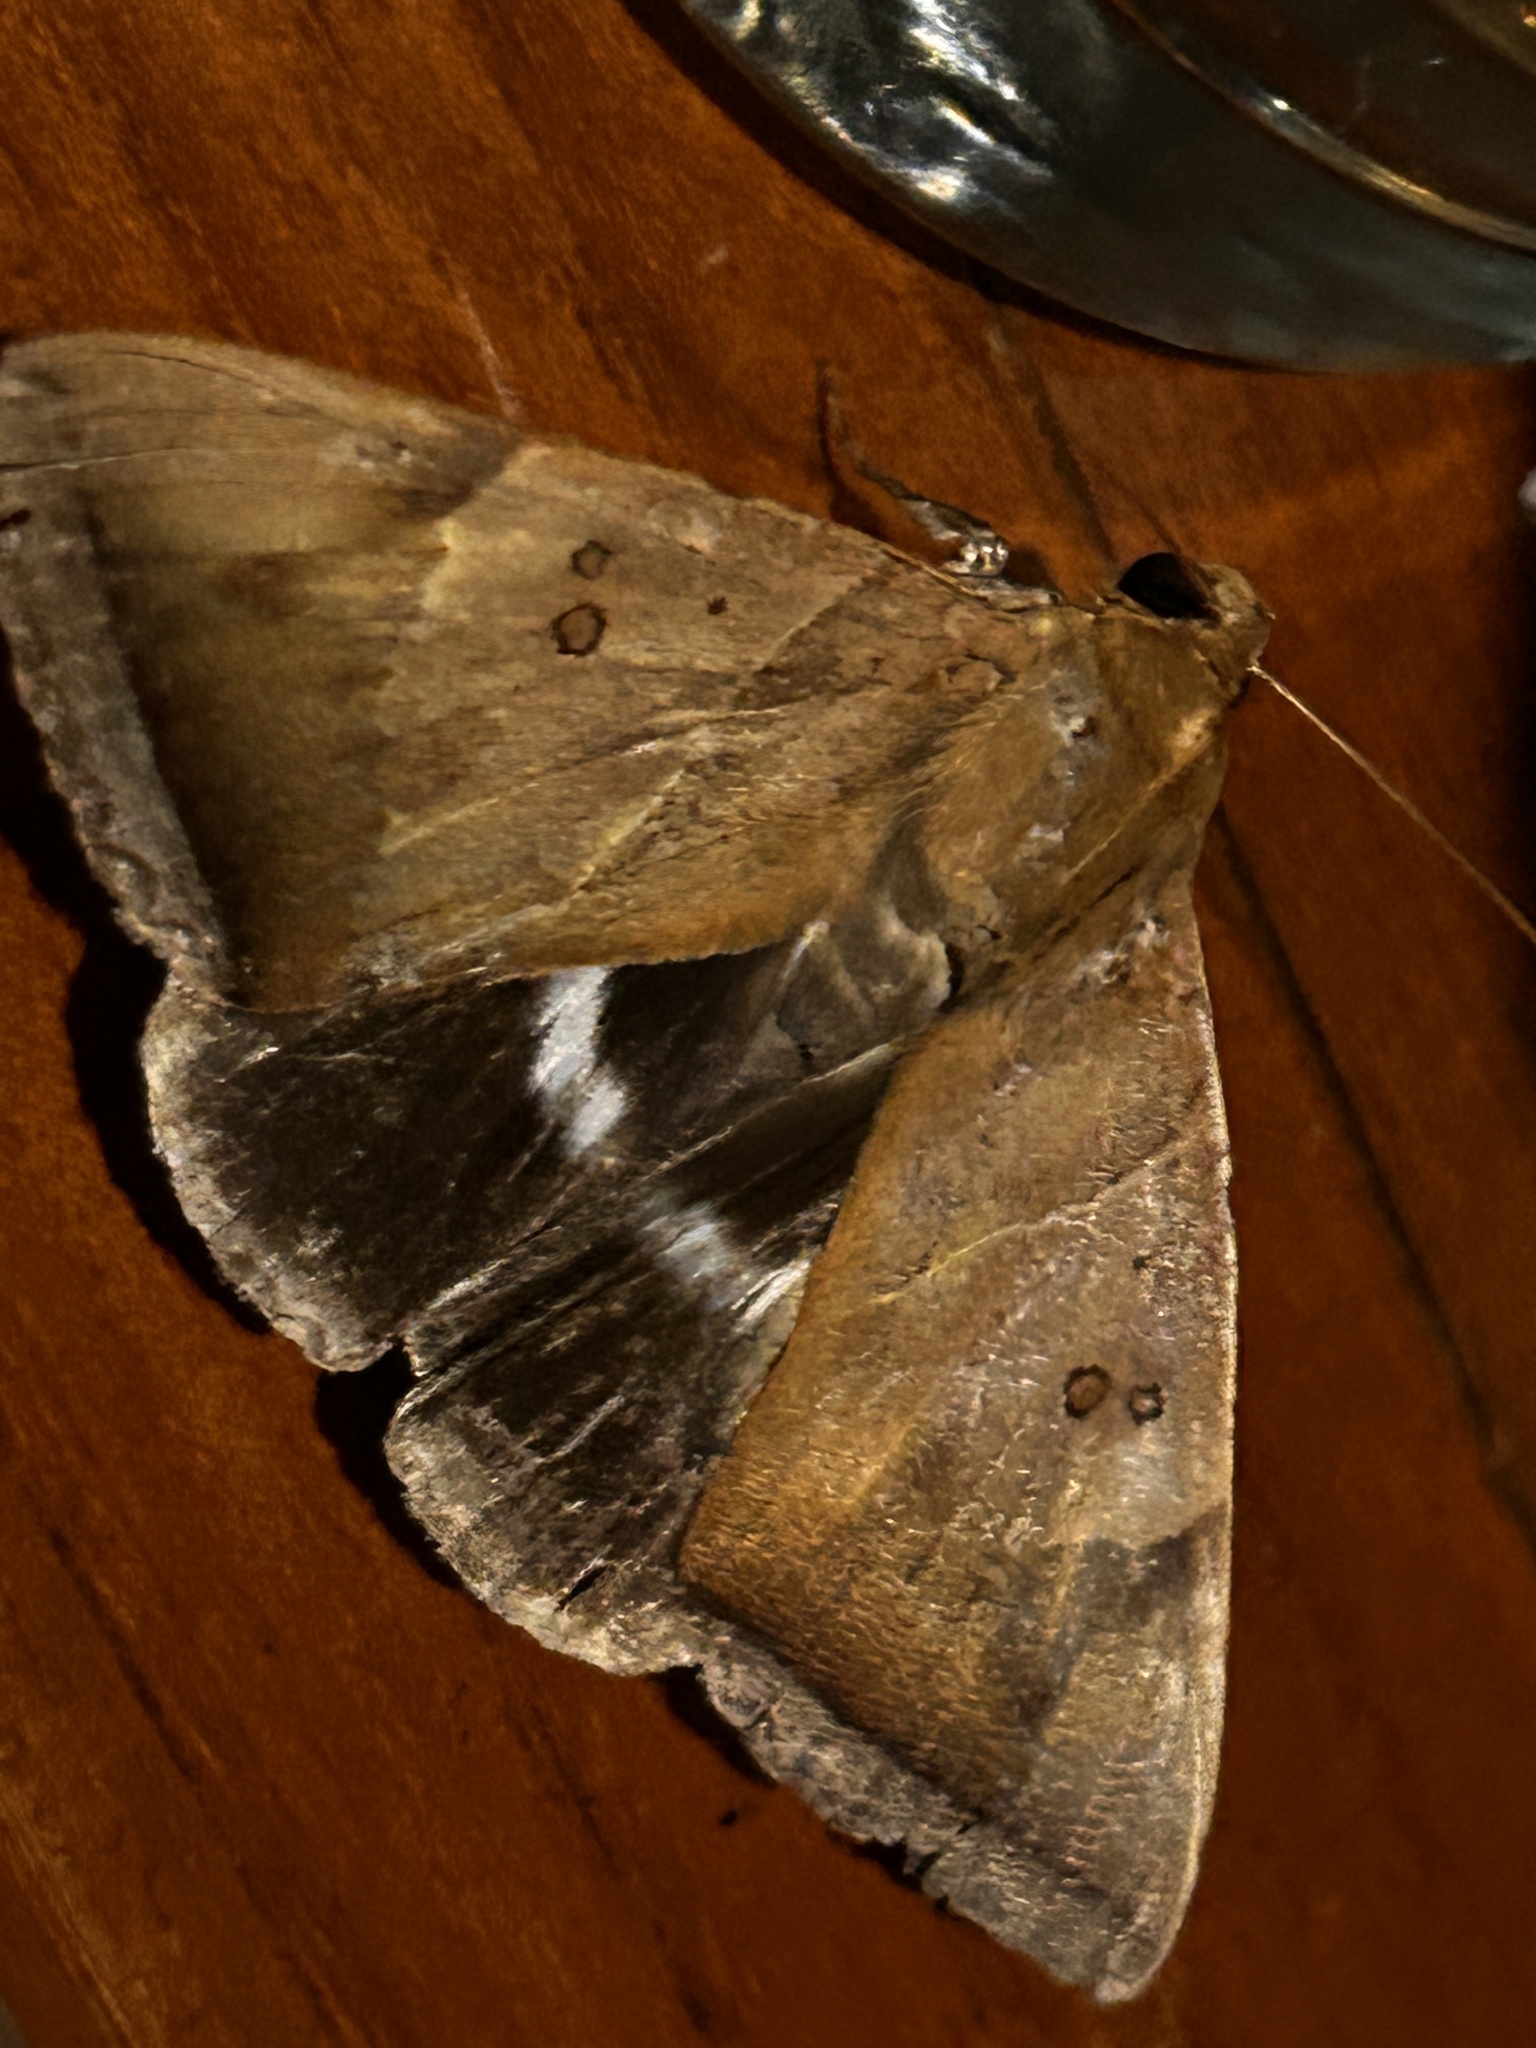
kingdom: Animalia
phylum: Arthropoda
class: Insecta
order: Lepidoptera
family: Erebidae
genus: Artena
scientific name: Artena dotata
